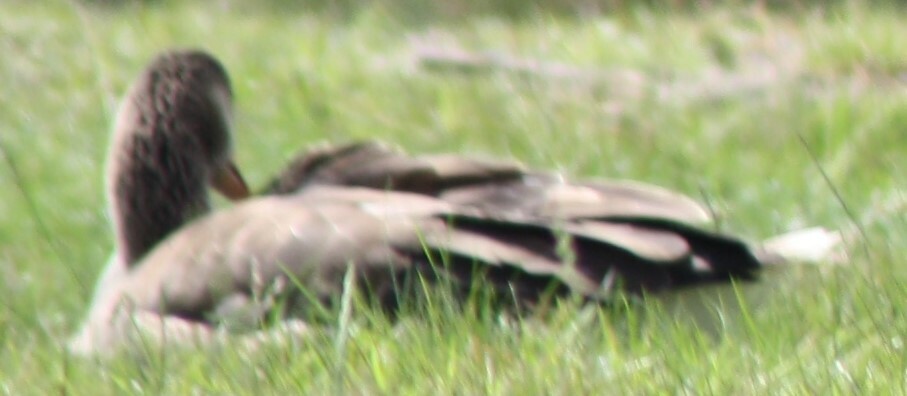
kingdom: Animalia
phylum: Chordata
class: Aves
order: Anseriformes
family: Anatidae
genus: Anser
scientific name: Anser anser
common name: Greylag goose
